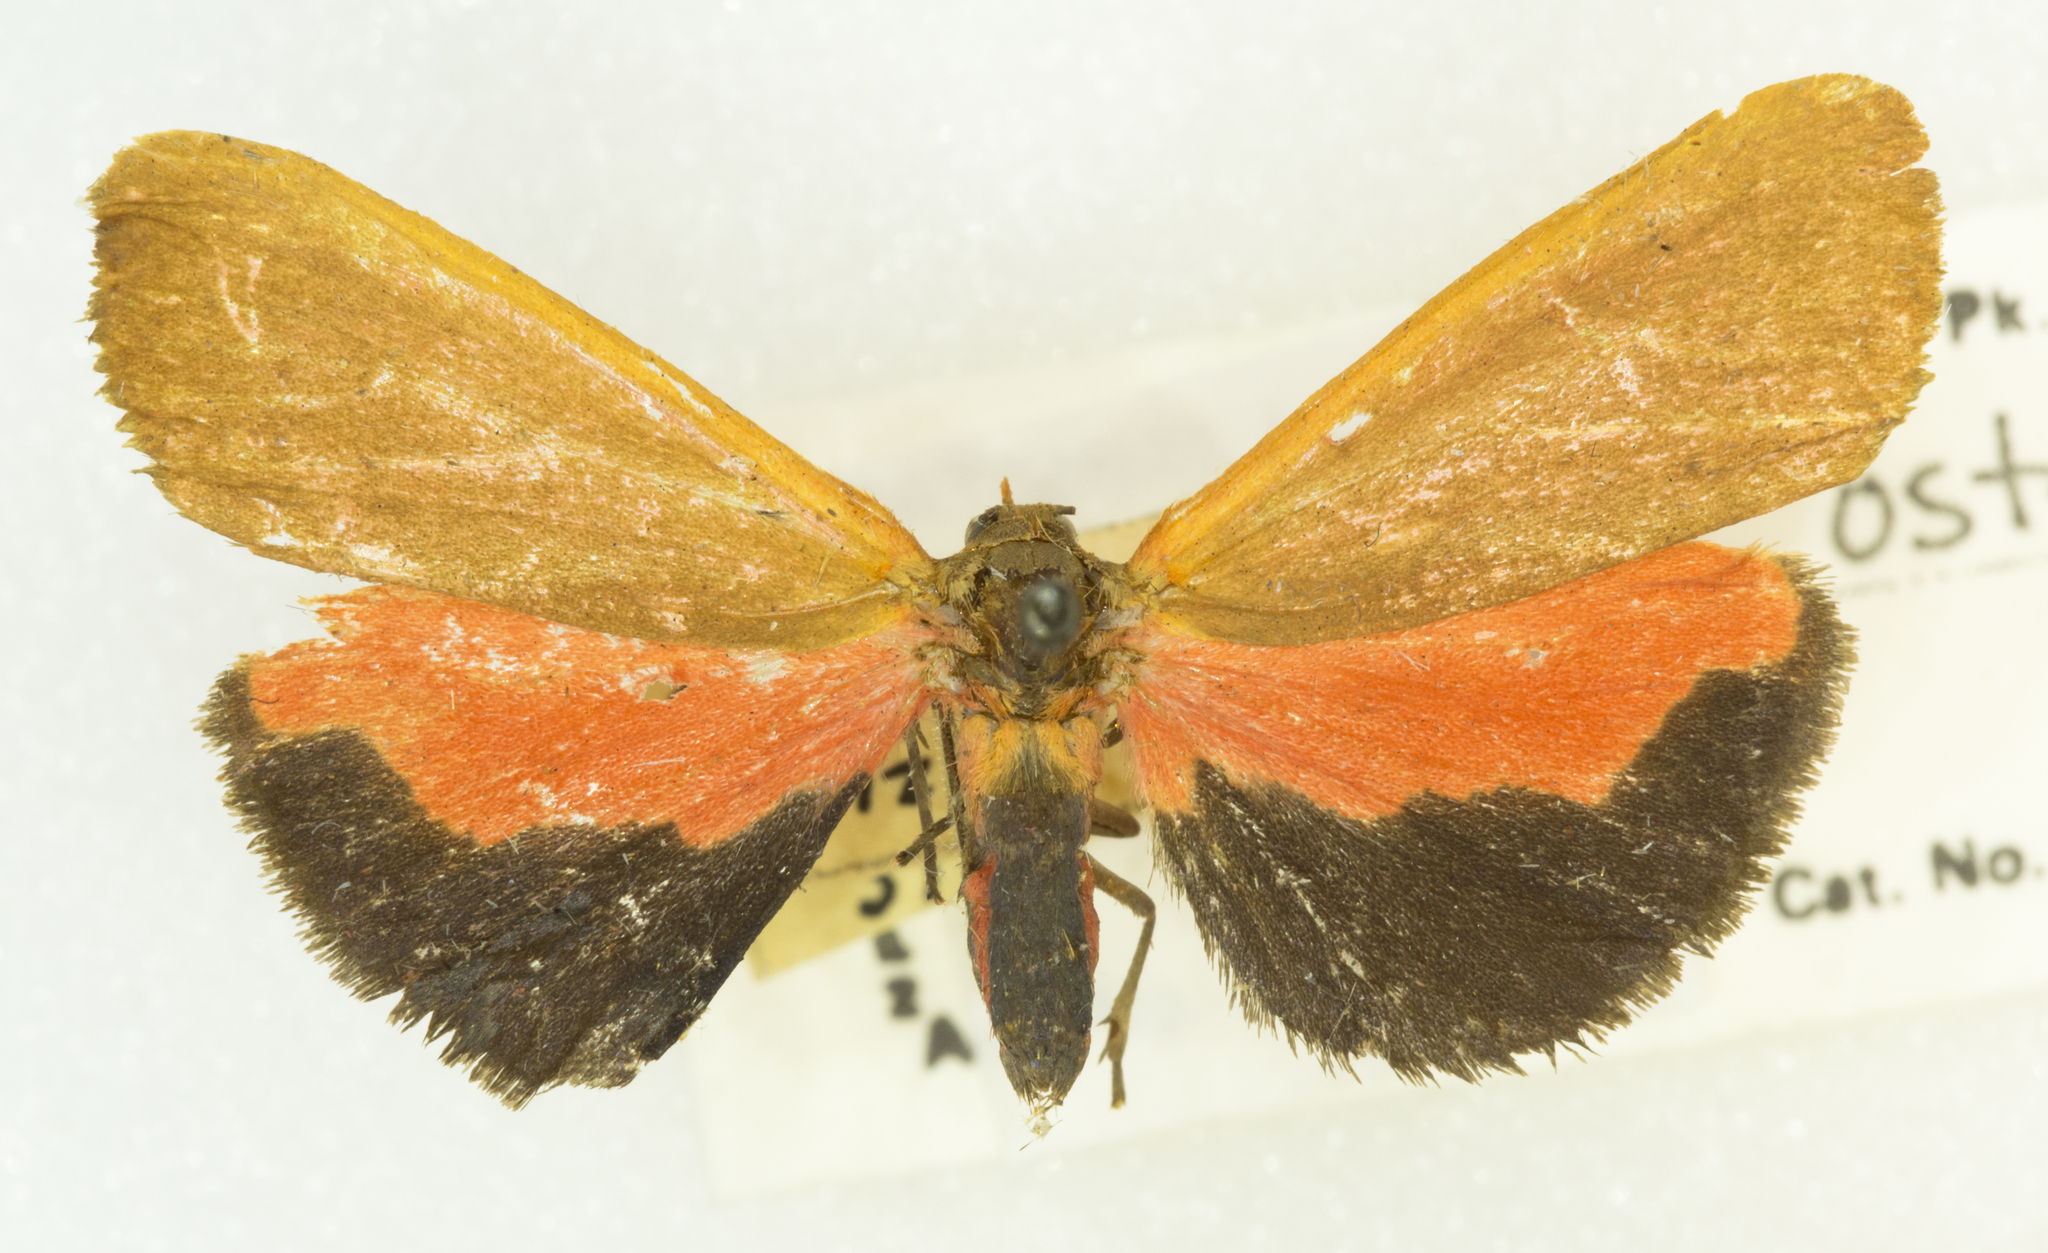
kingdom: Animalia
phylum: Arthropoda
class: Insecta
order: Lepidoptera
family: Erebidae
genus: Virbia
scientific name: Virbia ostenta
